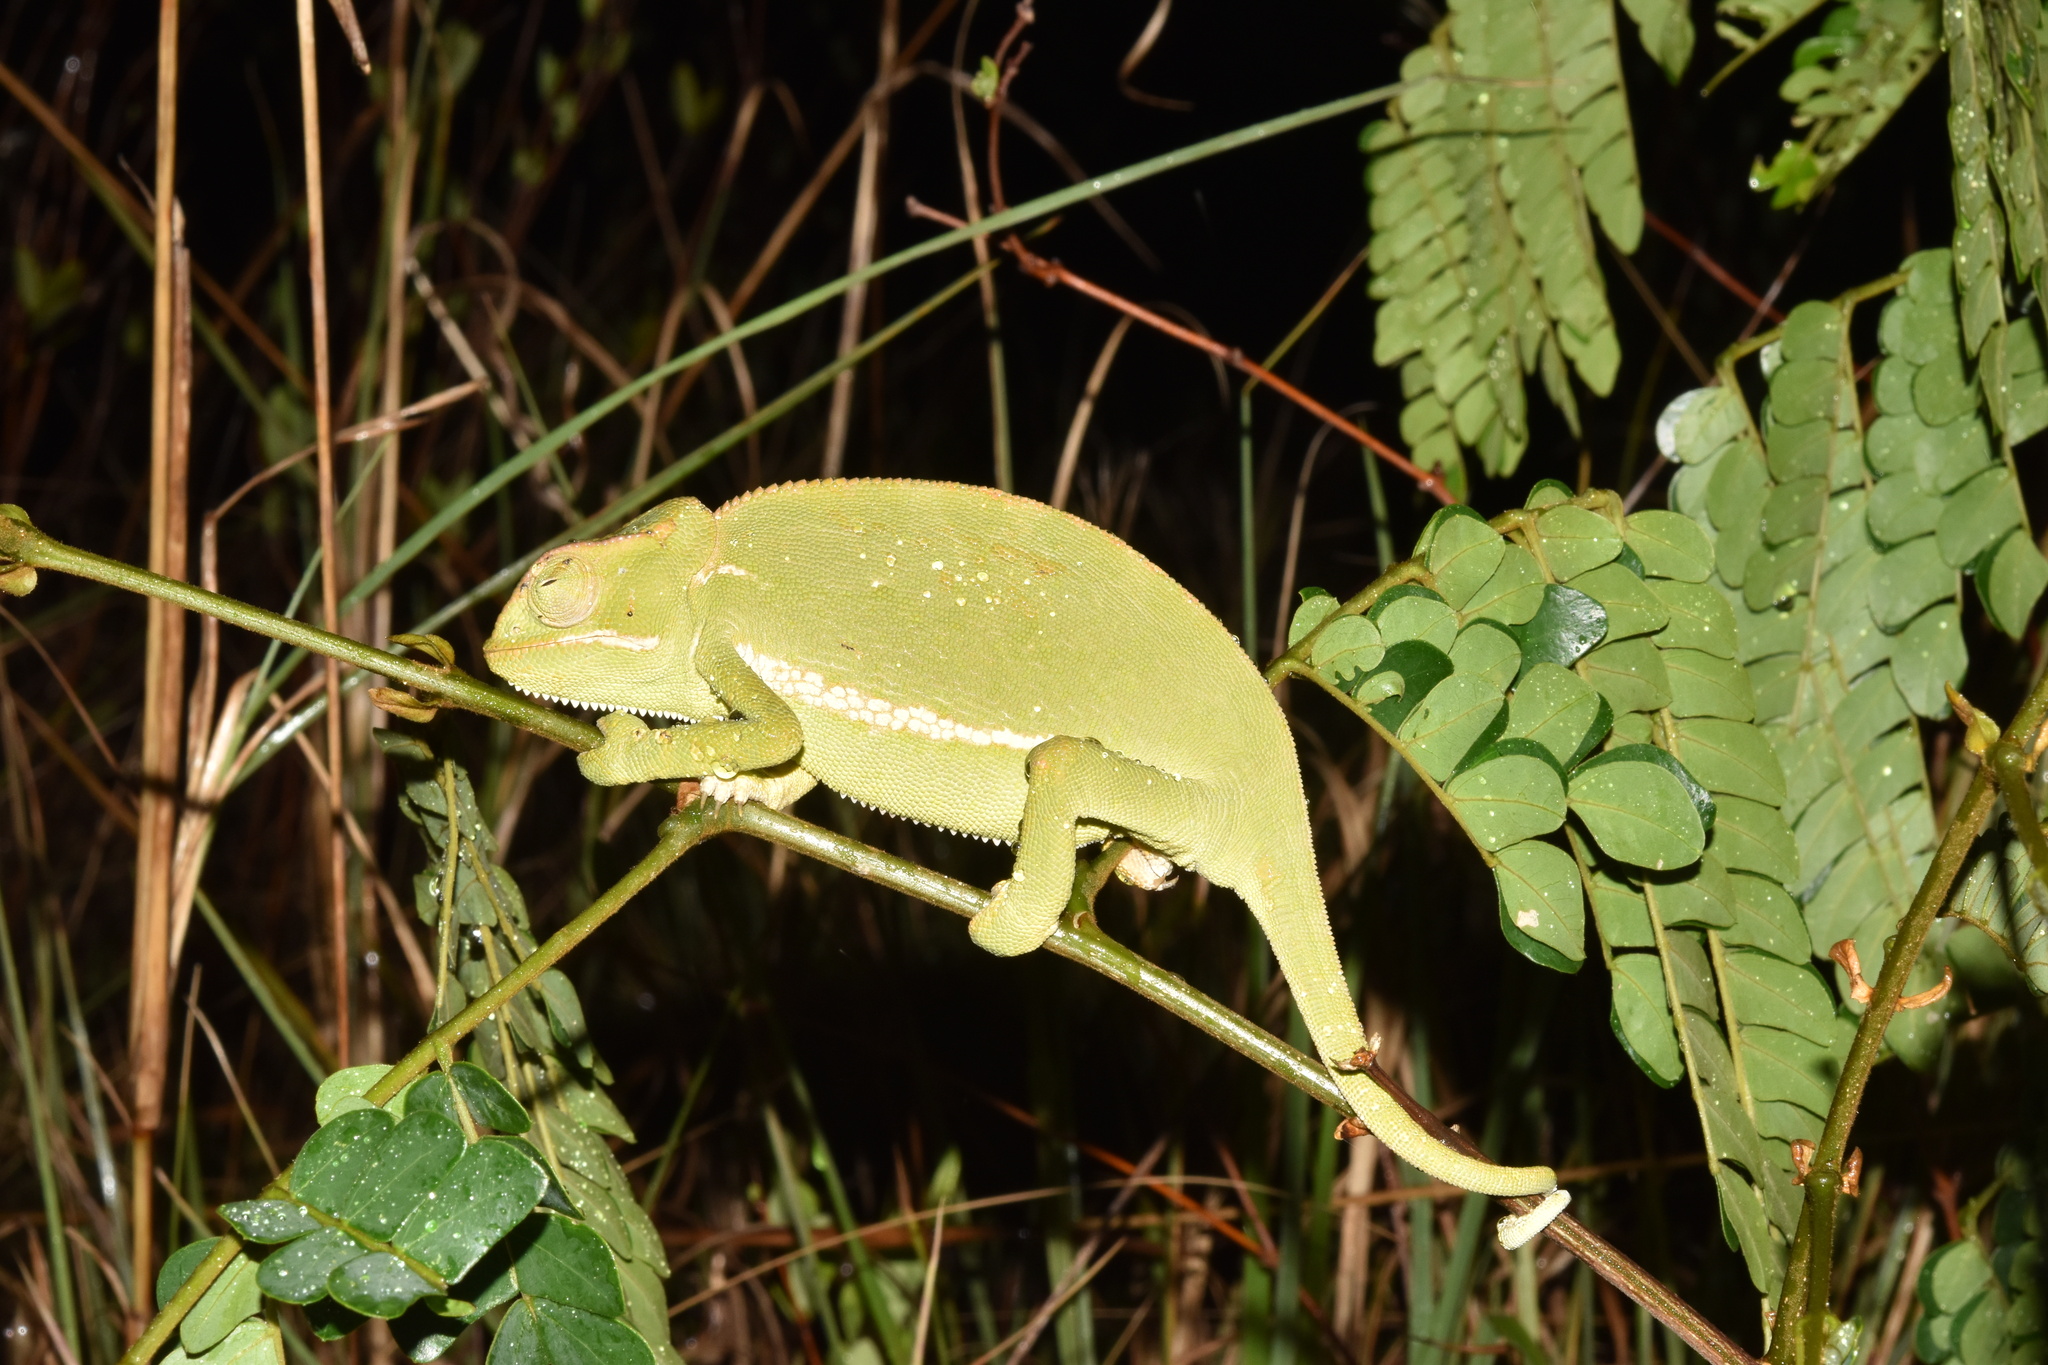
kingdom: Animalia
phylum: Chordata
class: Squamata
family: Chamaeleonidae
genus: Chamaeleo
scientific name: Chamaeleo dilepis
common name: Flapneck chameleon
